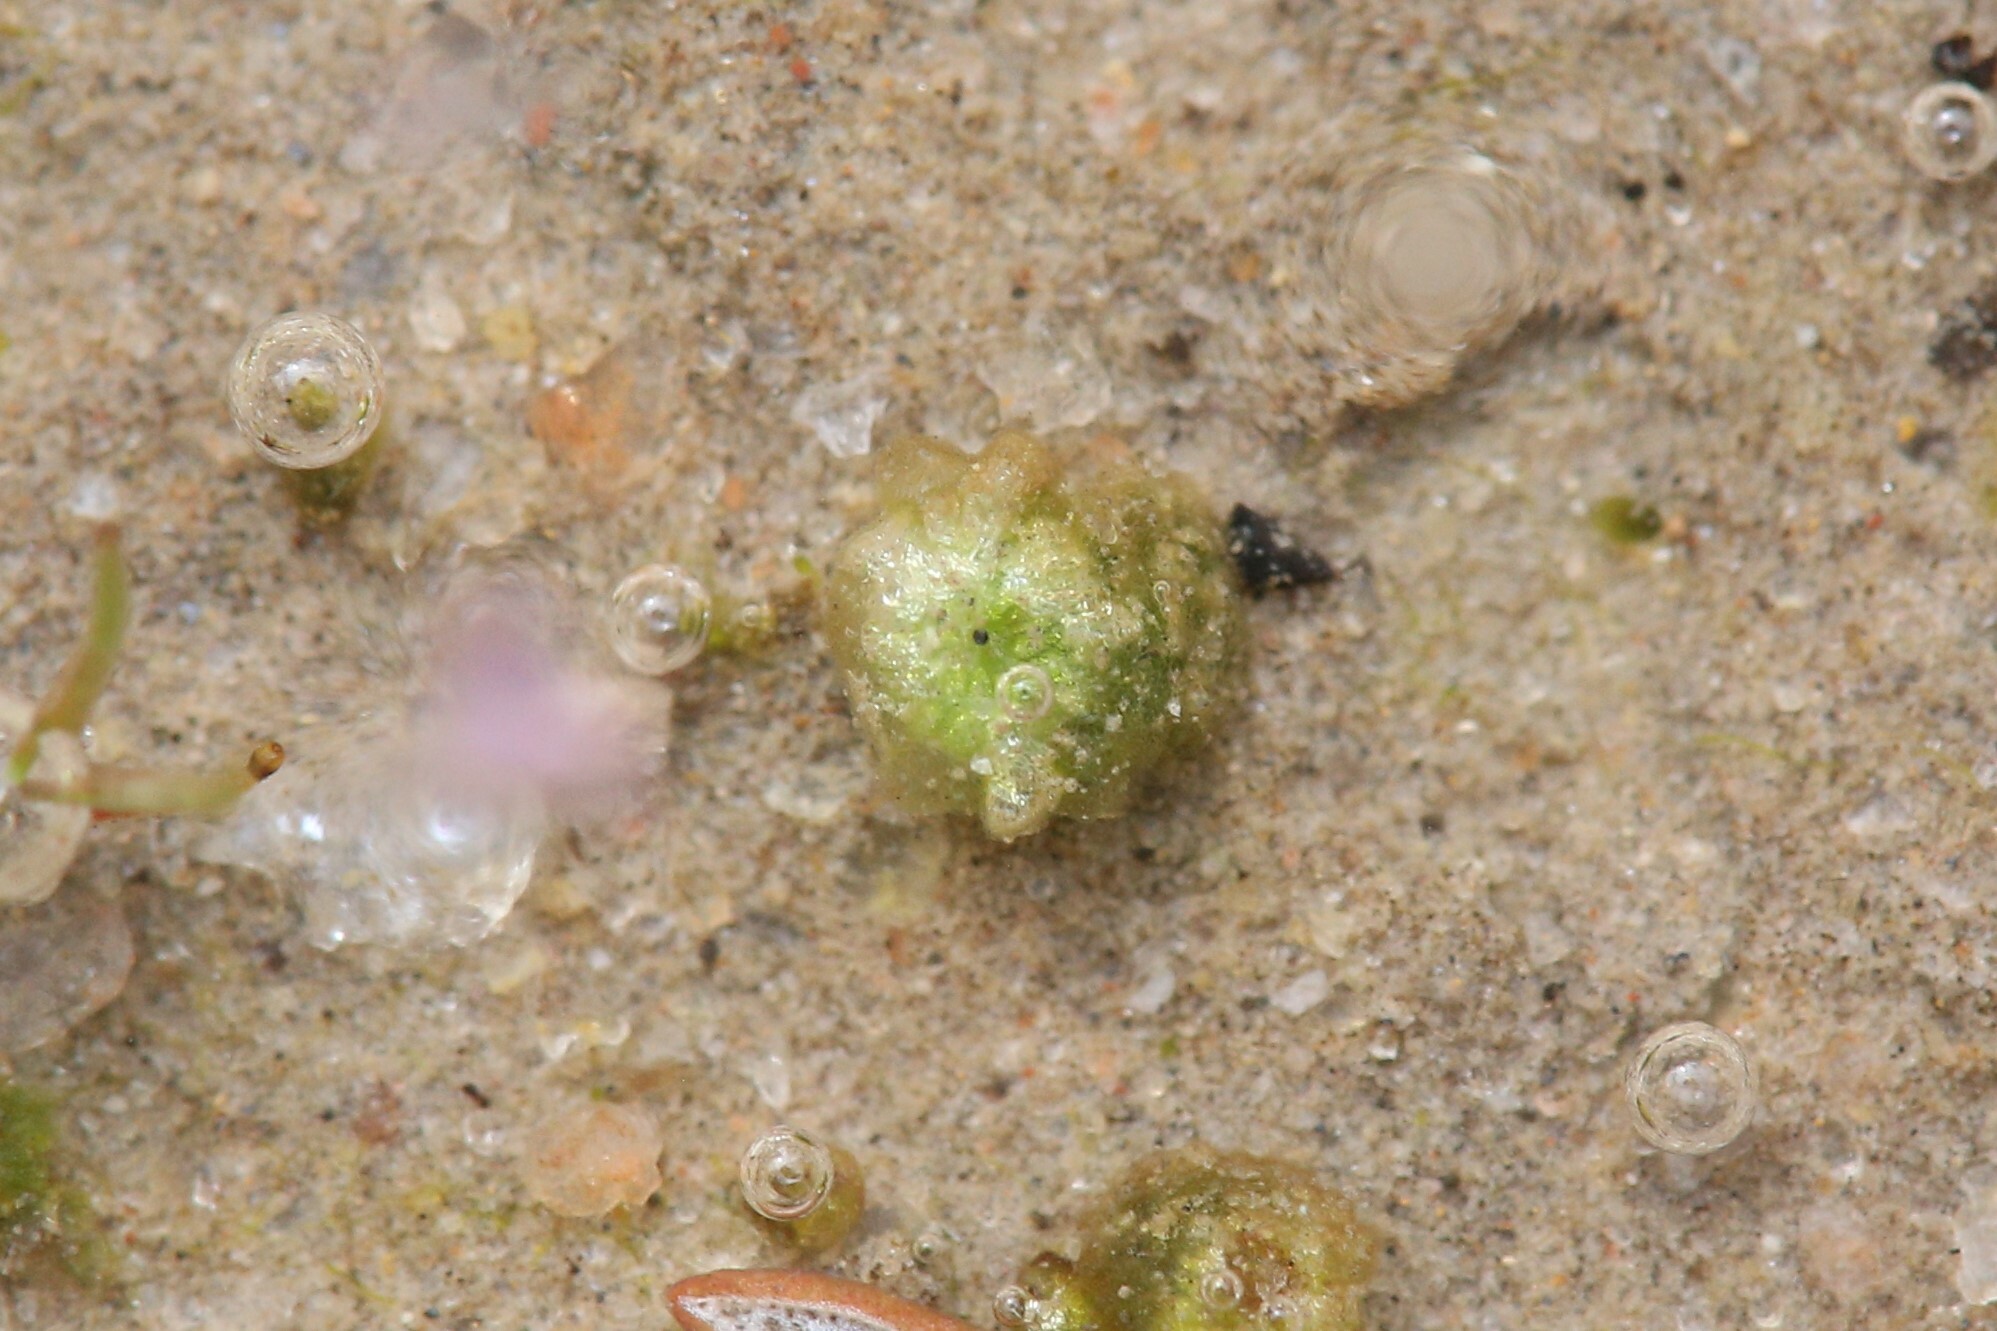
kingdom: Plantae
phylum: Marchantiophyta
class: Marchantiopsida
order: Sphaerocarpales
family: Monocarpaceae
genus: Monocarpus
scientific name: Monocarpus sphaerocarpus
